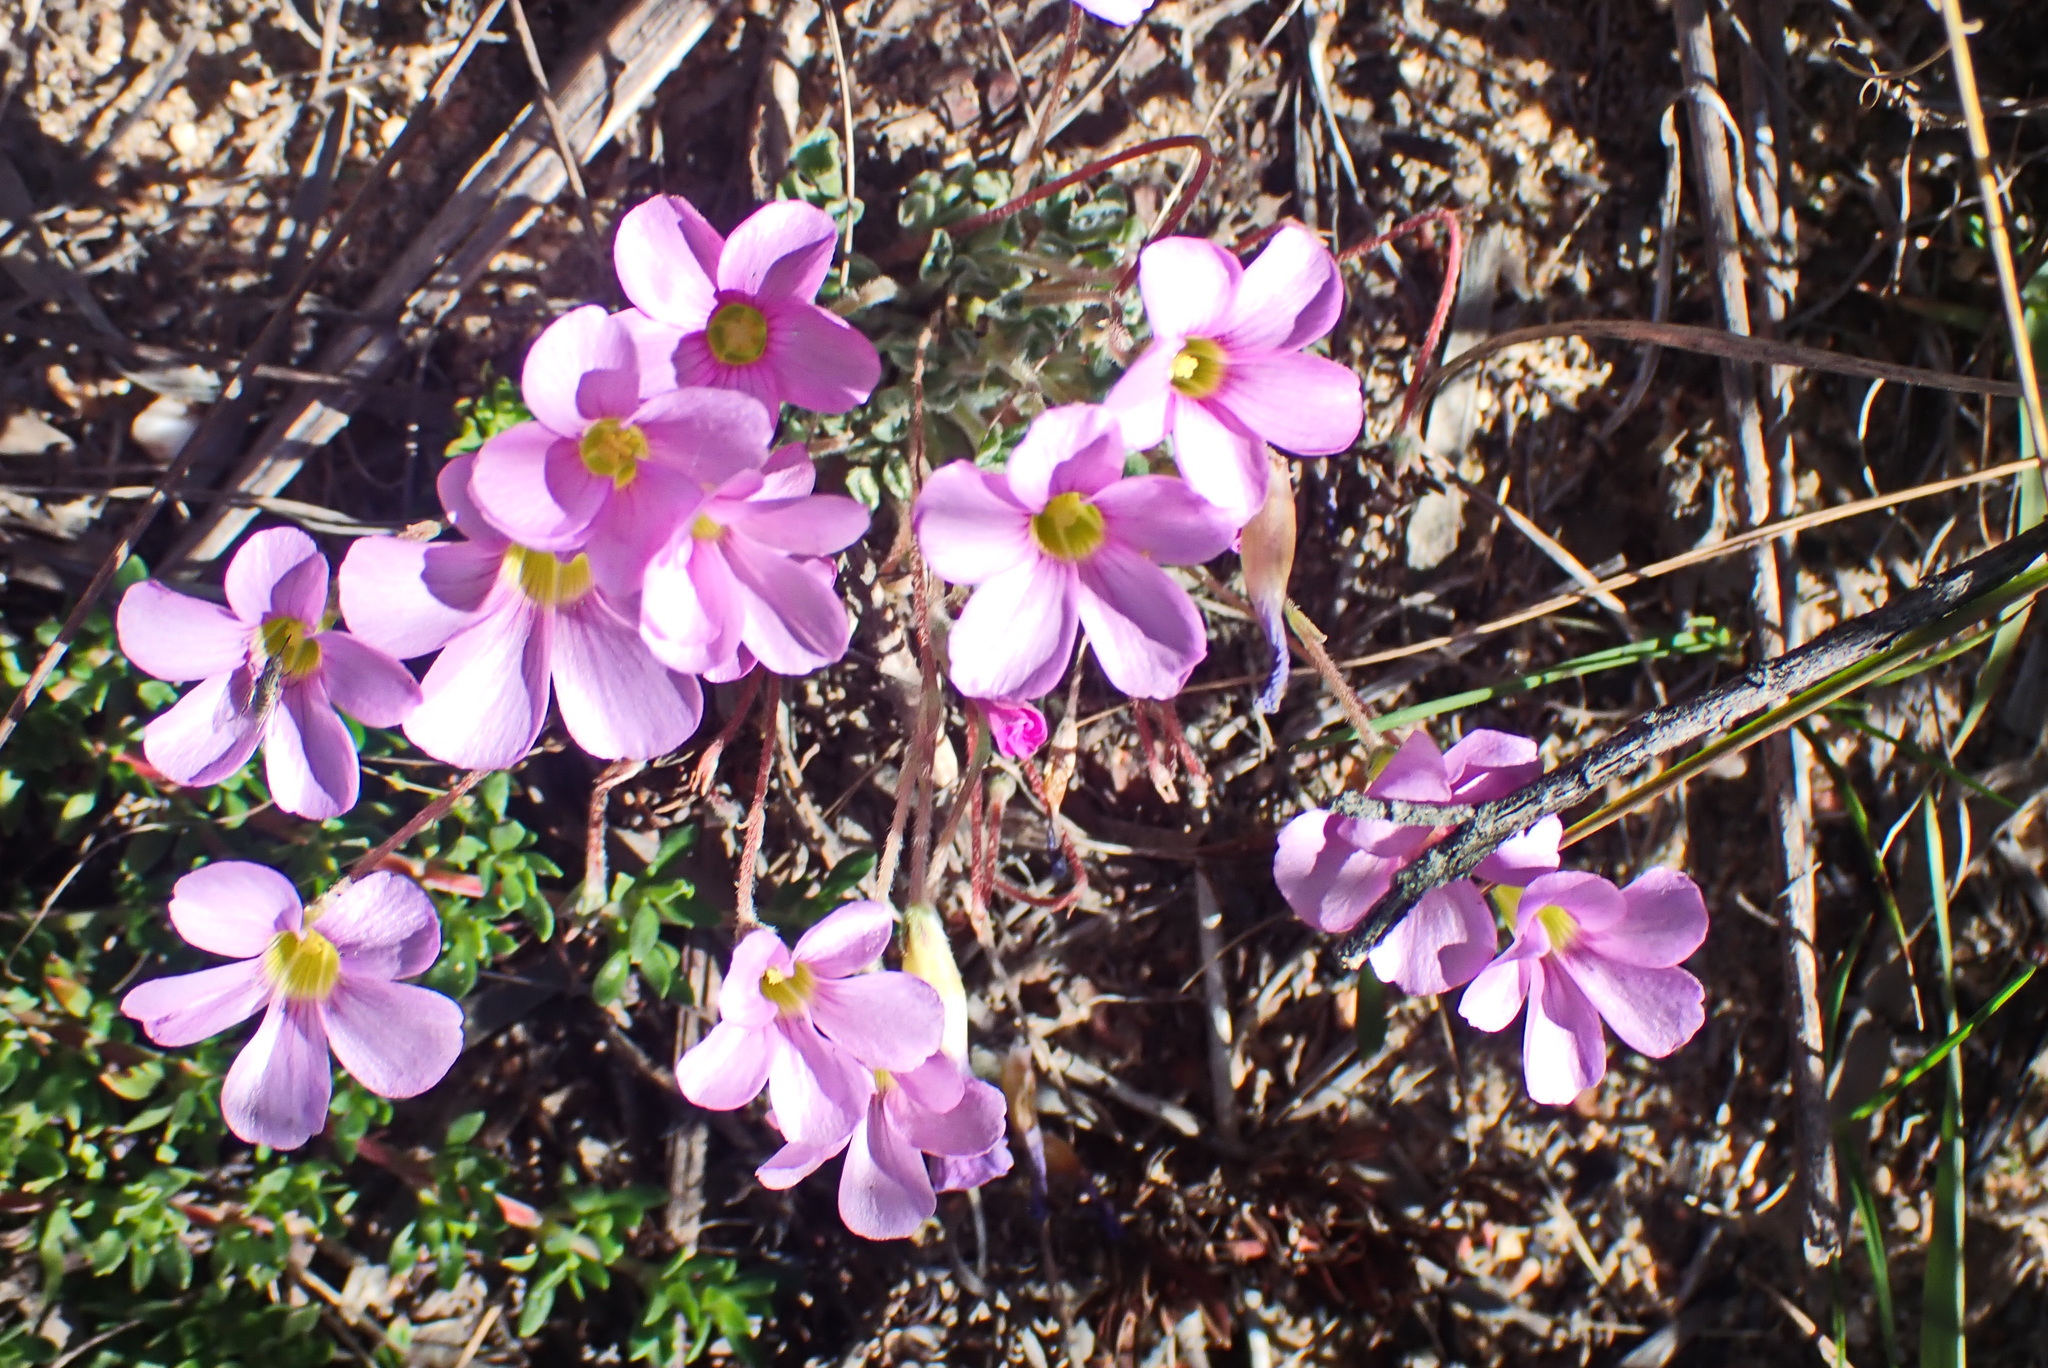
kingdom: Plantae
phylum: Tracheophyta
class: Magnoliopsida
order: Oxalidales
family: Oxalidaceae
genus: Oxalis
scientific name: Oxalis imbricata
